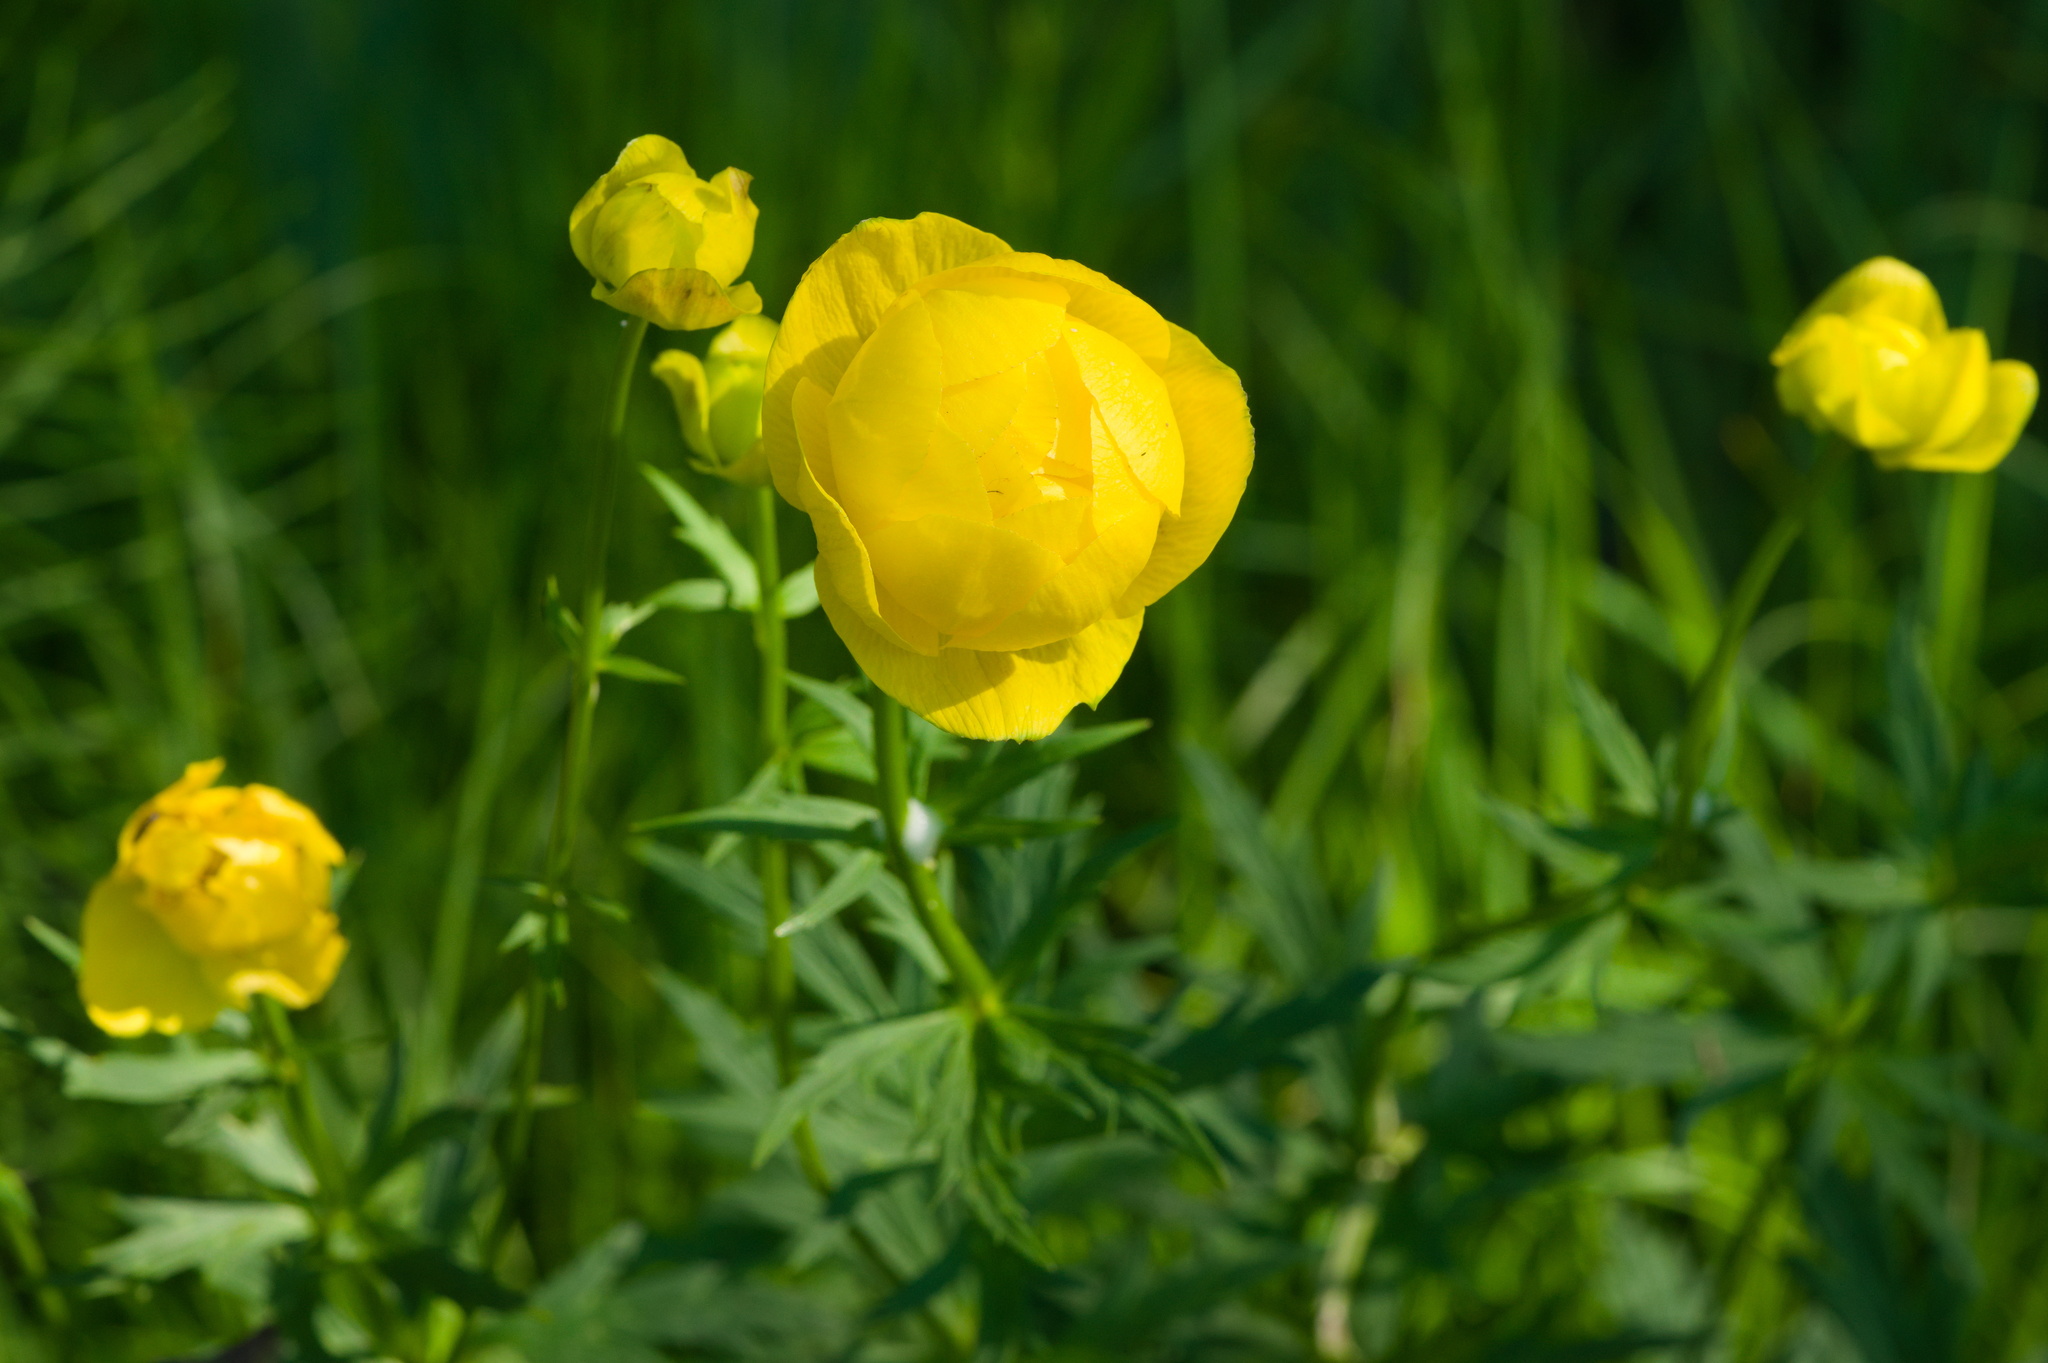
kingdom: Plantae
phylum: Tracheophyta
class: Magnoliopsida
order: Ranunculales
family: Ranunculaceae
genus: Trollius
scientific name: Trollius europaeus
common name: European globeflower
